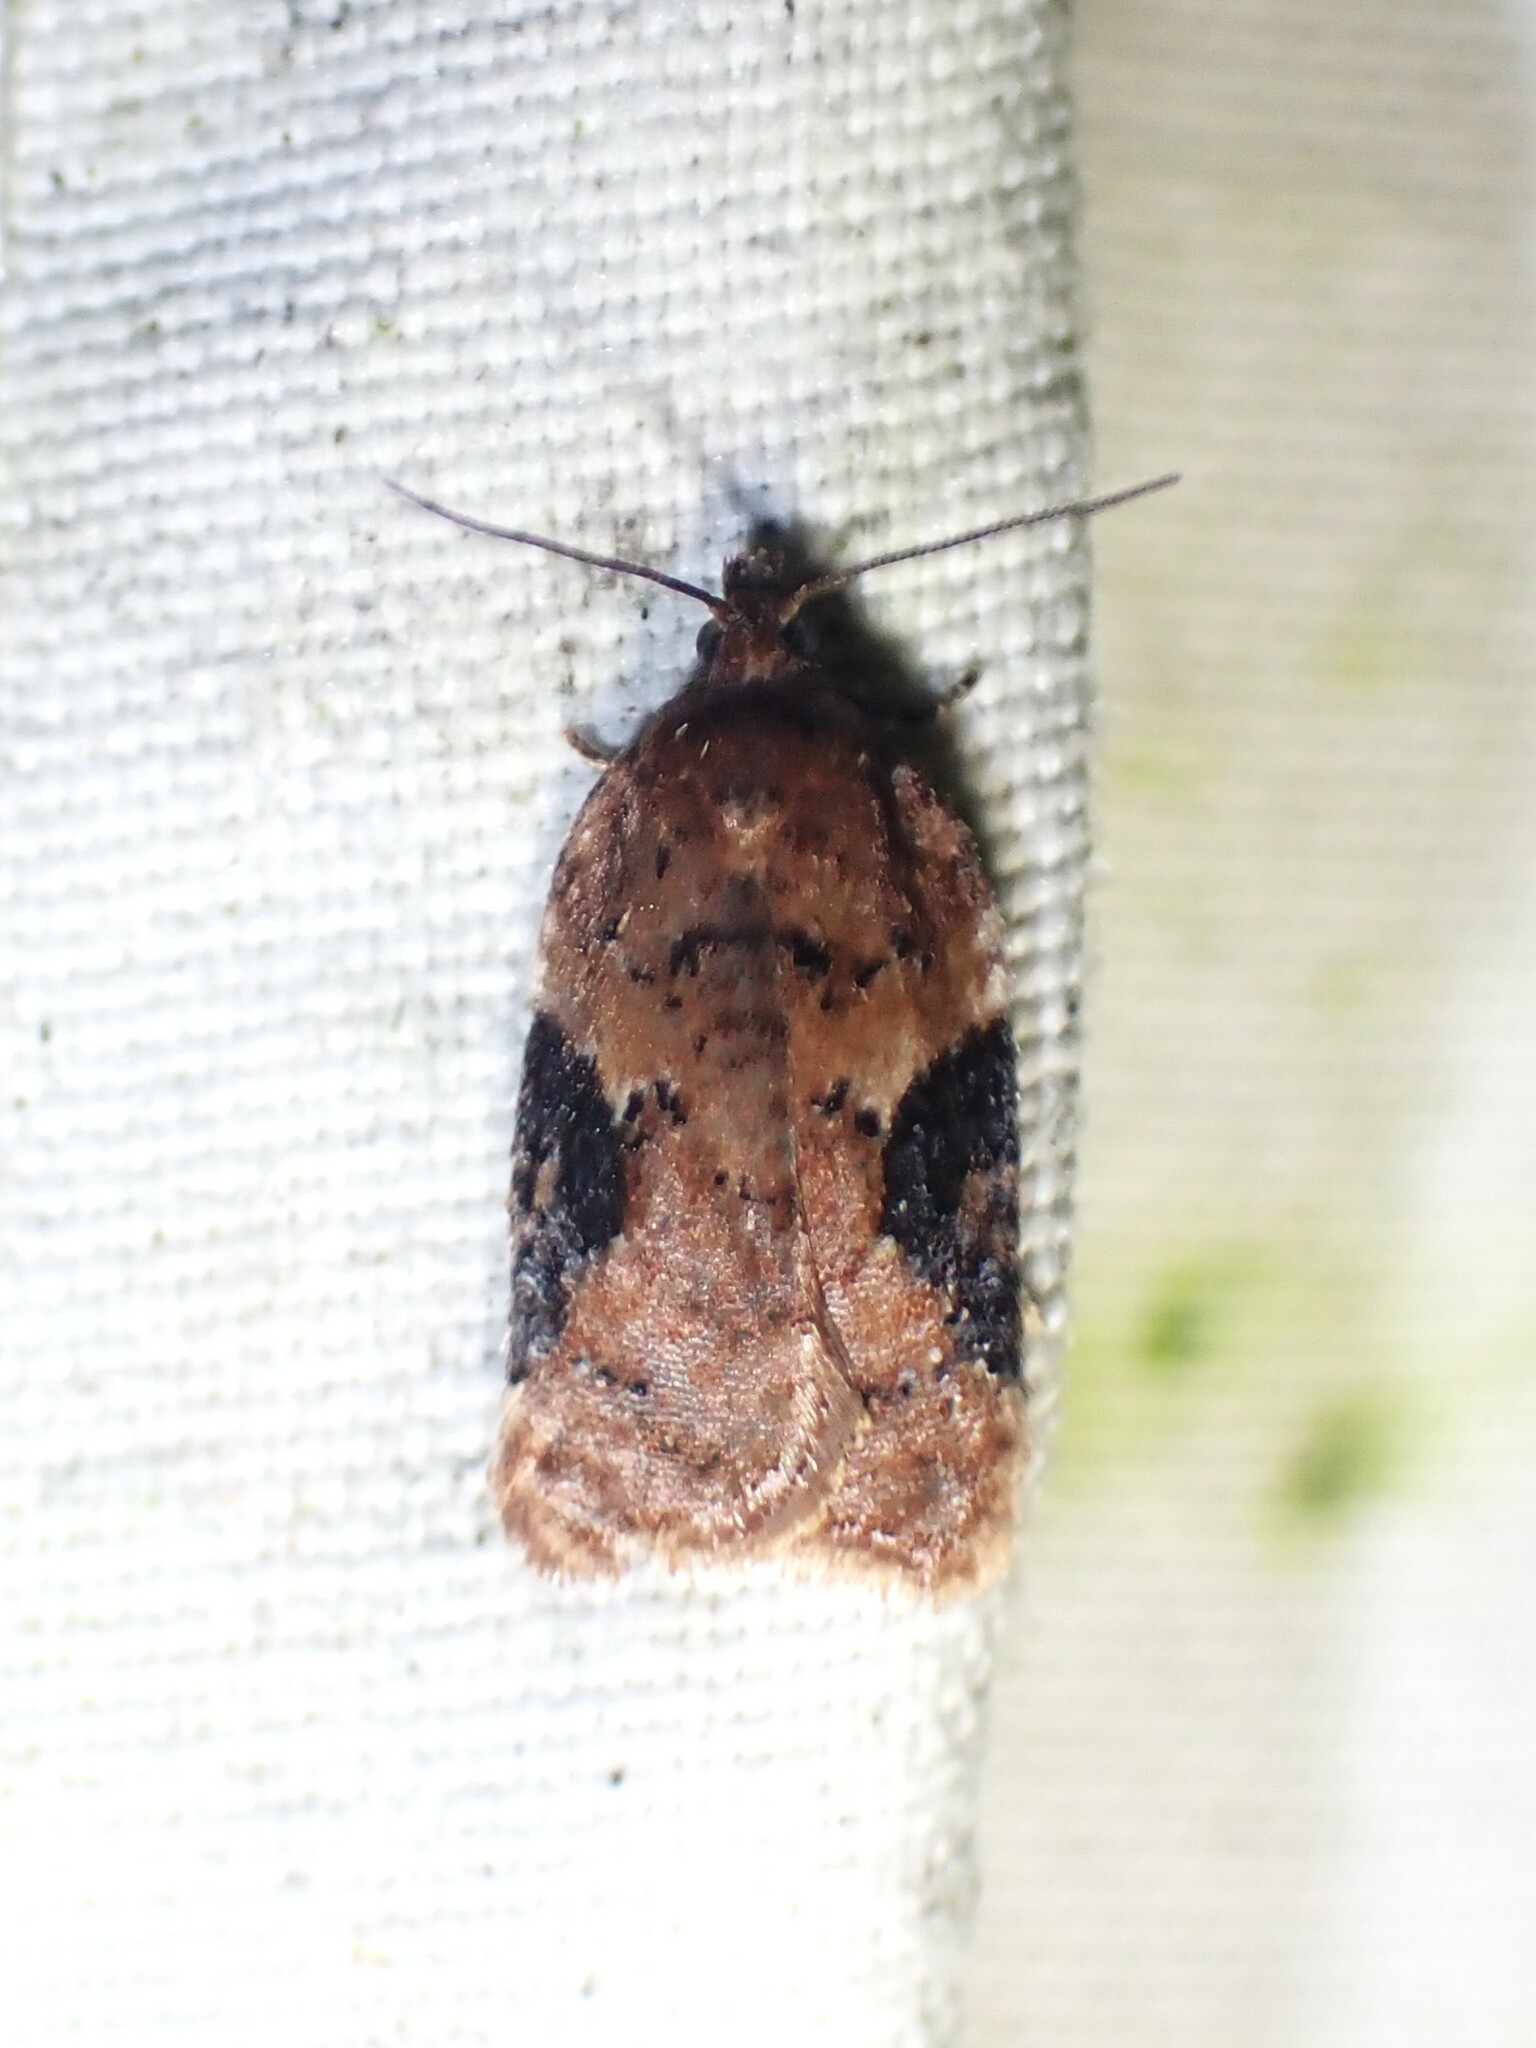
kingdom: Animalia
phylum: Arthropoda
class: Insecta
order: Lepidoptera
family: Tortricidae
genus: Acleris
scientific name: Acleris braunana
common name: Alder leafroller
